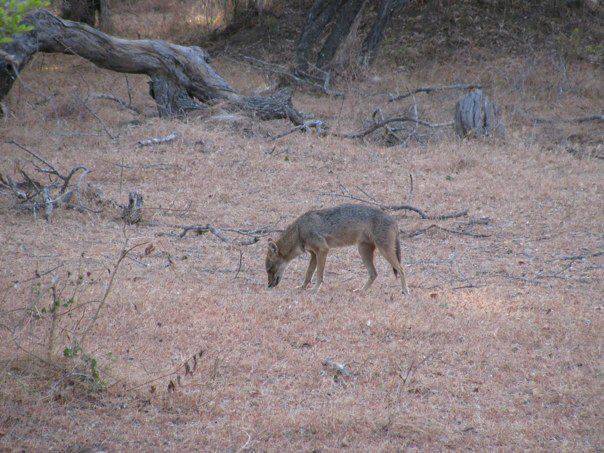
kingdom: Animalia
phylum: Chordata
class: Mammalia
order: Carnivora
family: Canidae
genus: Canis
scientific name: Canis aureus
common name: Golden jackal
